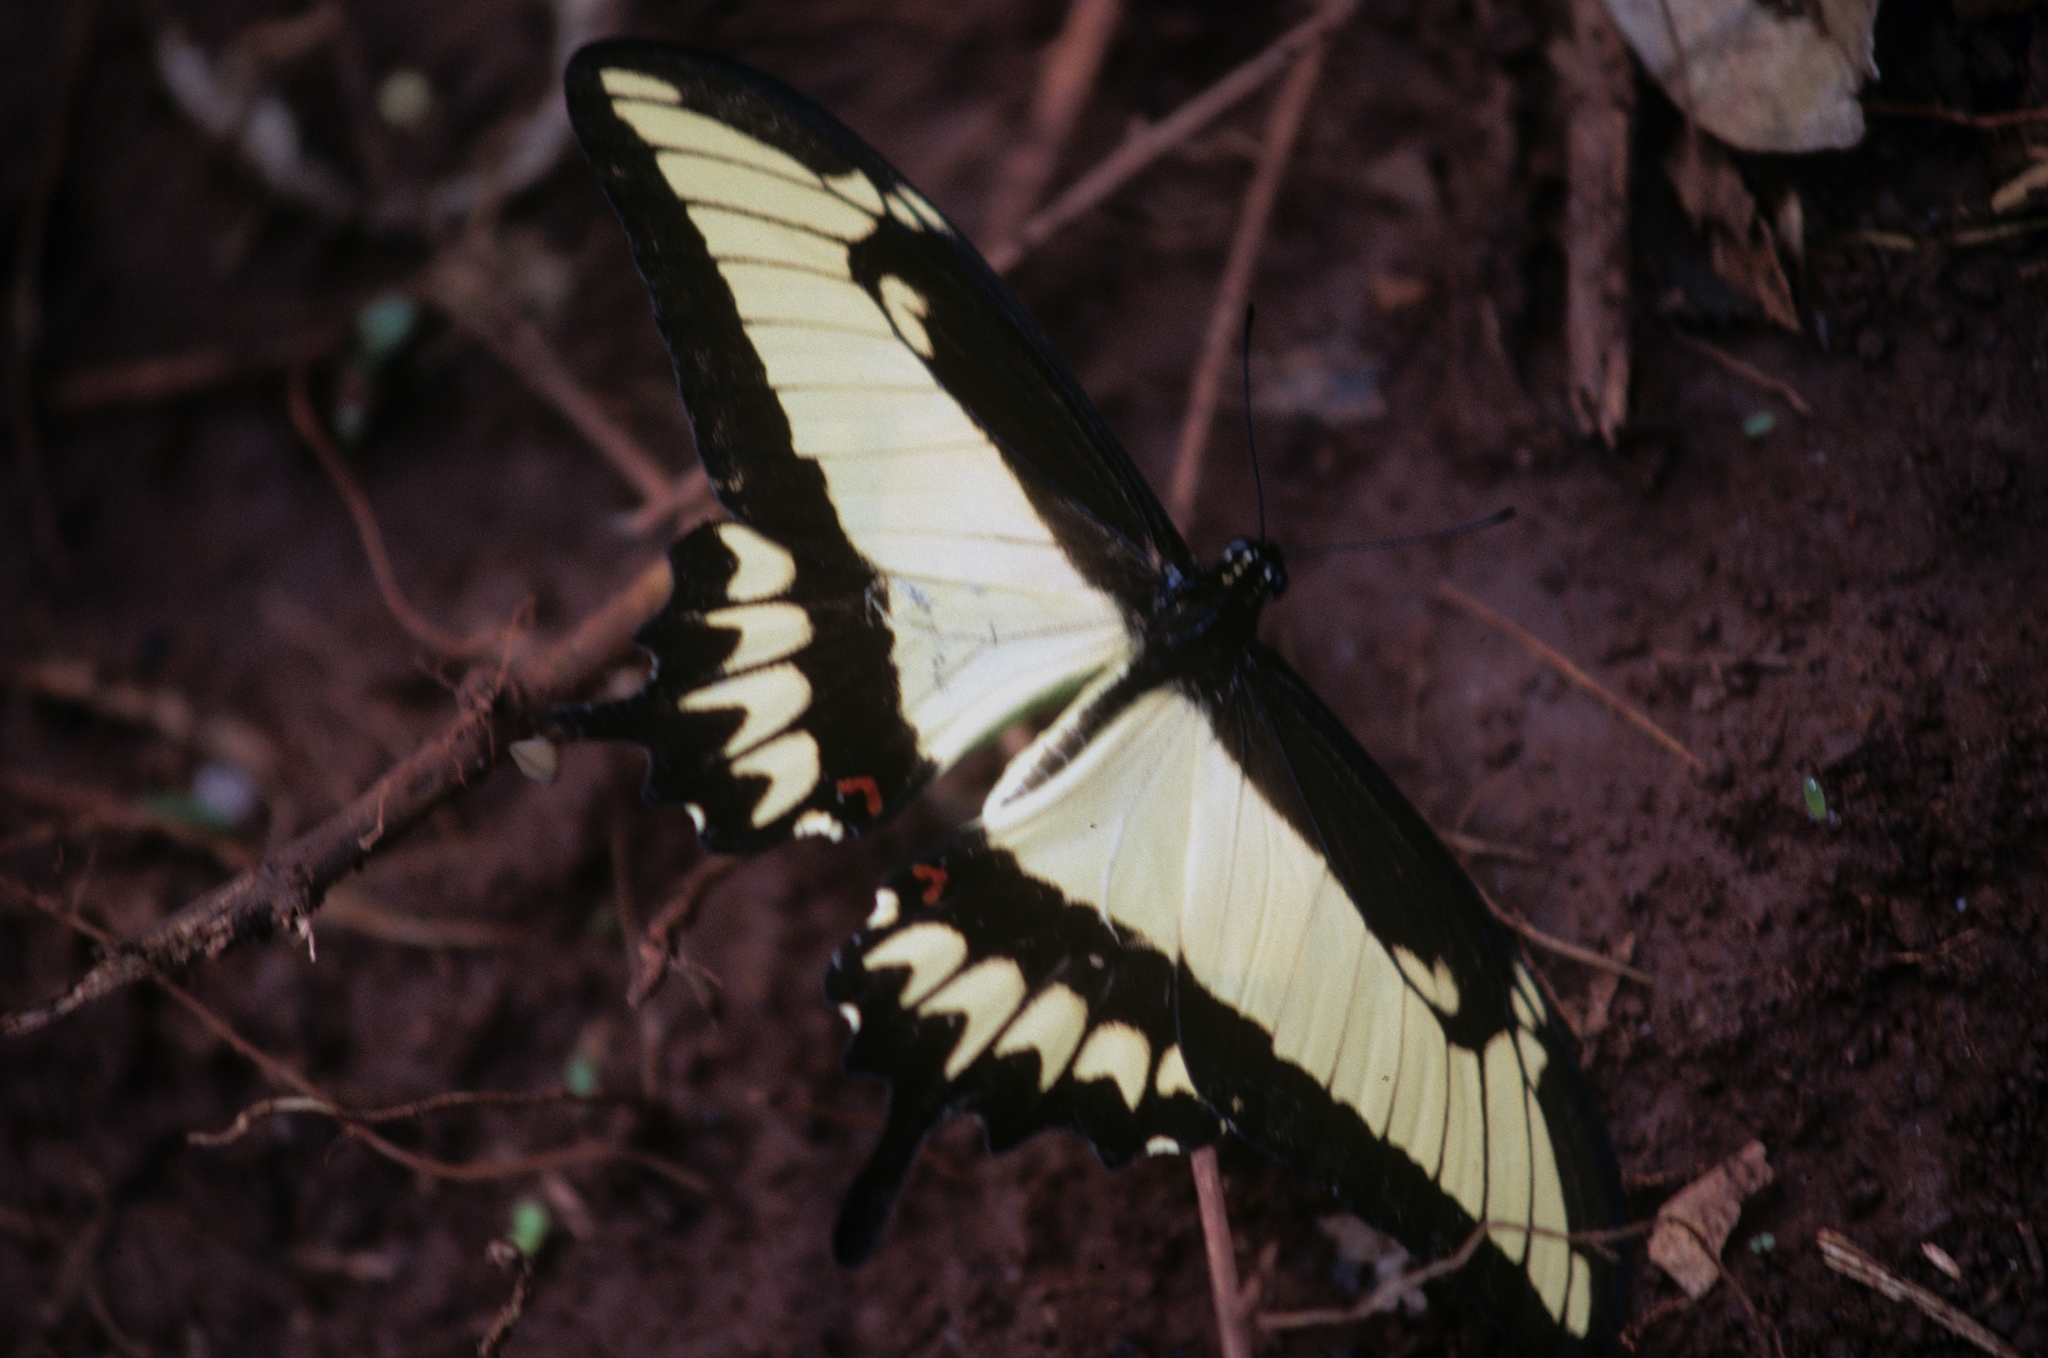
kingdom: Animalia
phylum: Arthropoda
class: Insecta
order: Lepidoptera
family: Papilionidae
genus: Papilio
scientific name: Papilio astyalus
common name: Astyalus swallowtail
